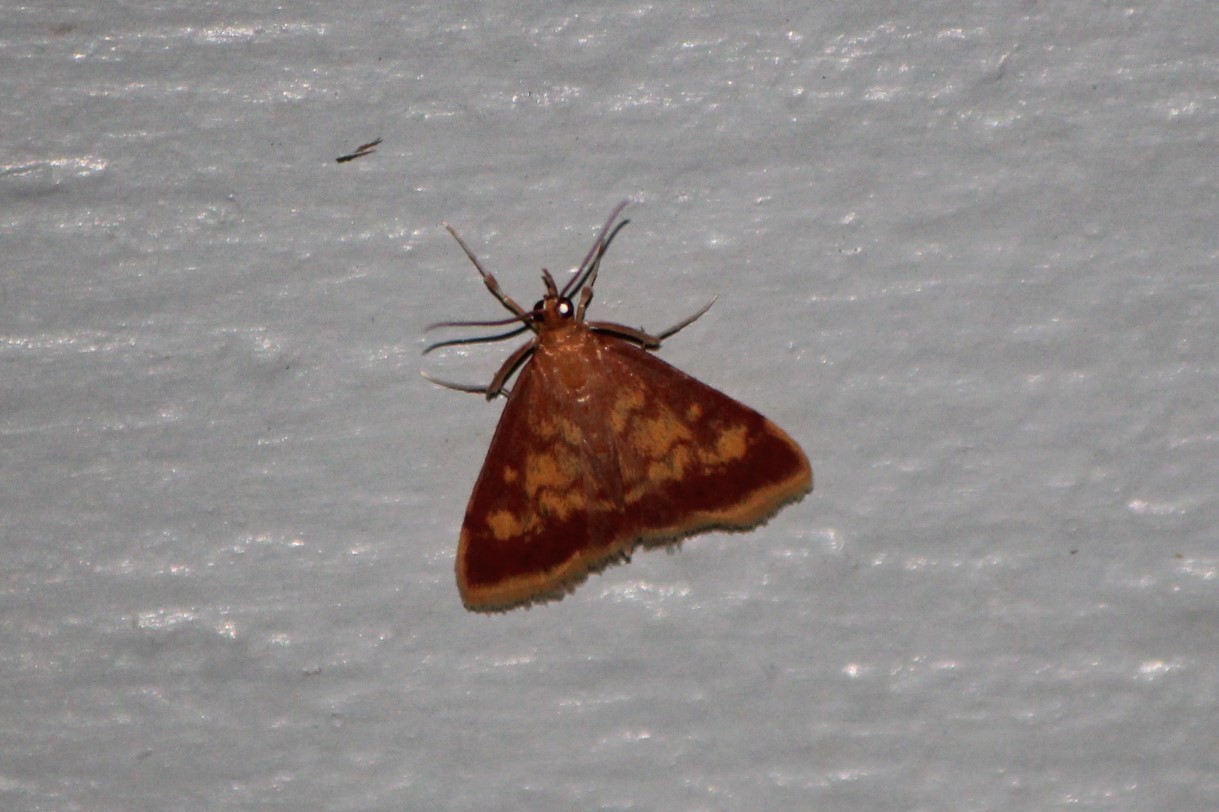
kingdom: Animalia
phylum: Arthropoda
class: Insecta
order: Lepidoptera
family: Crambidae
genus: Pyrausta
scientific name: Pyrausta acrionalis
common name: Mint-loving pyrausta moth
